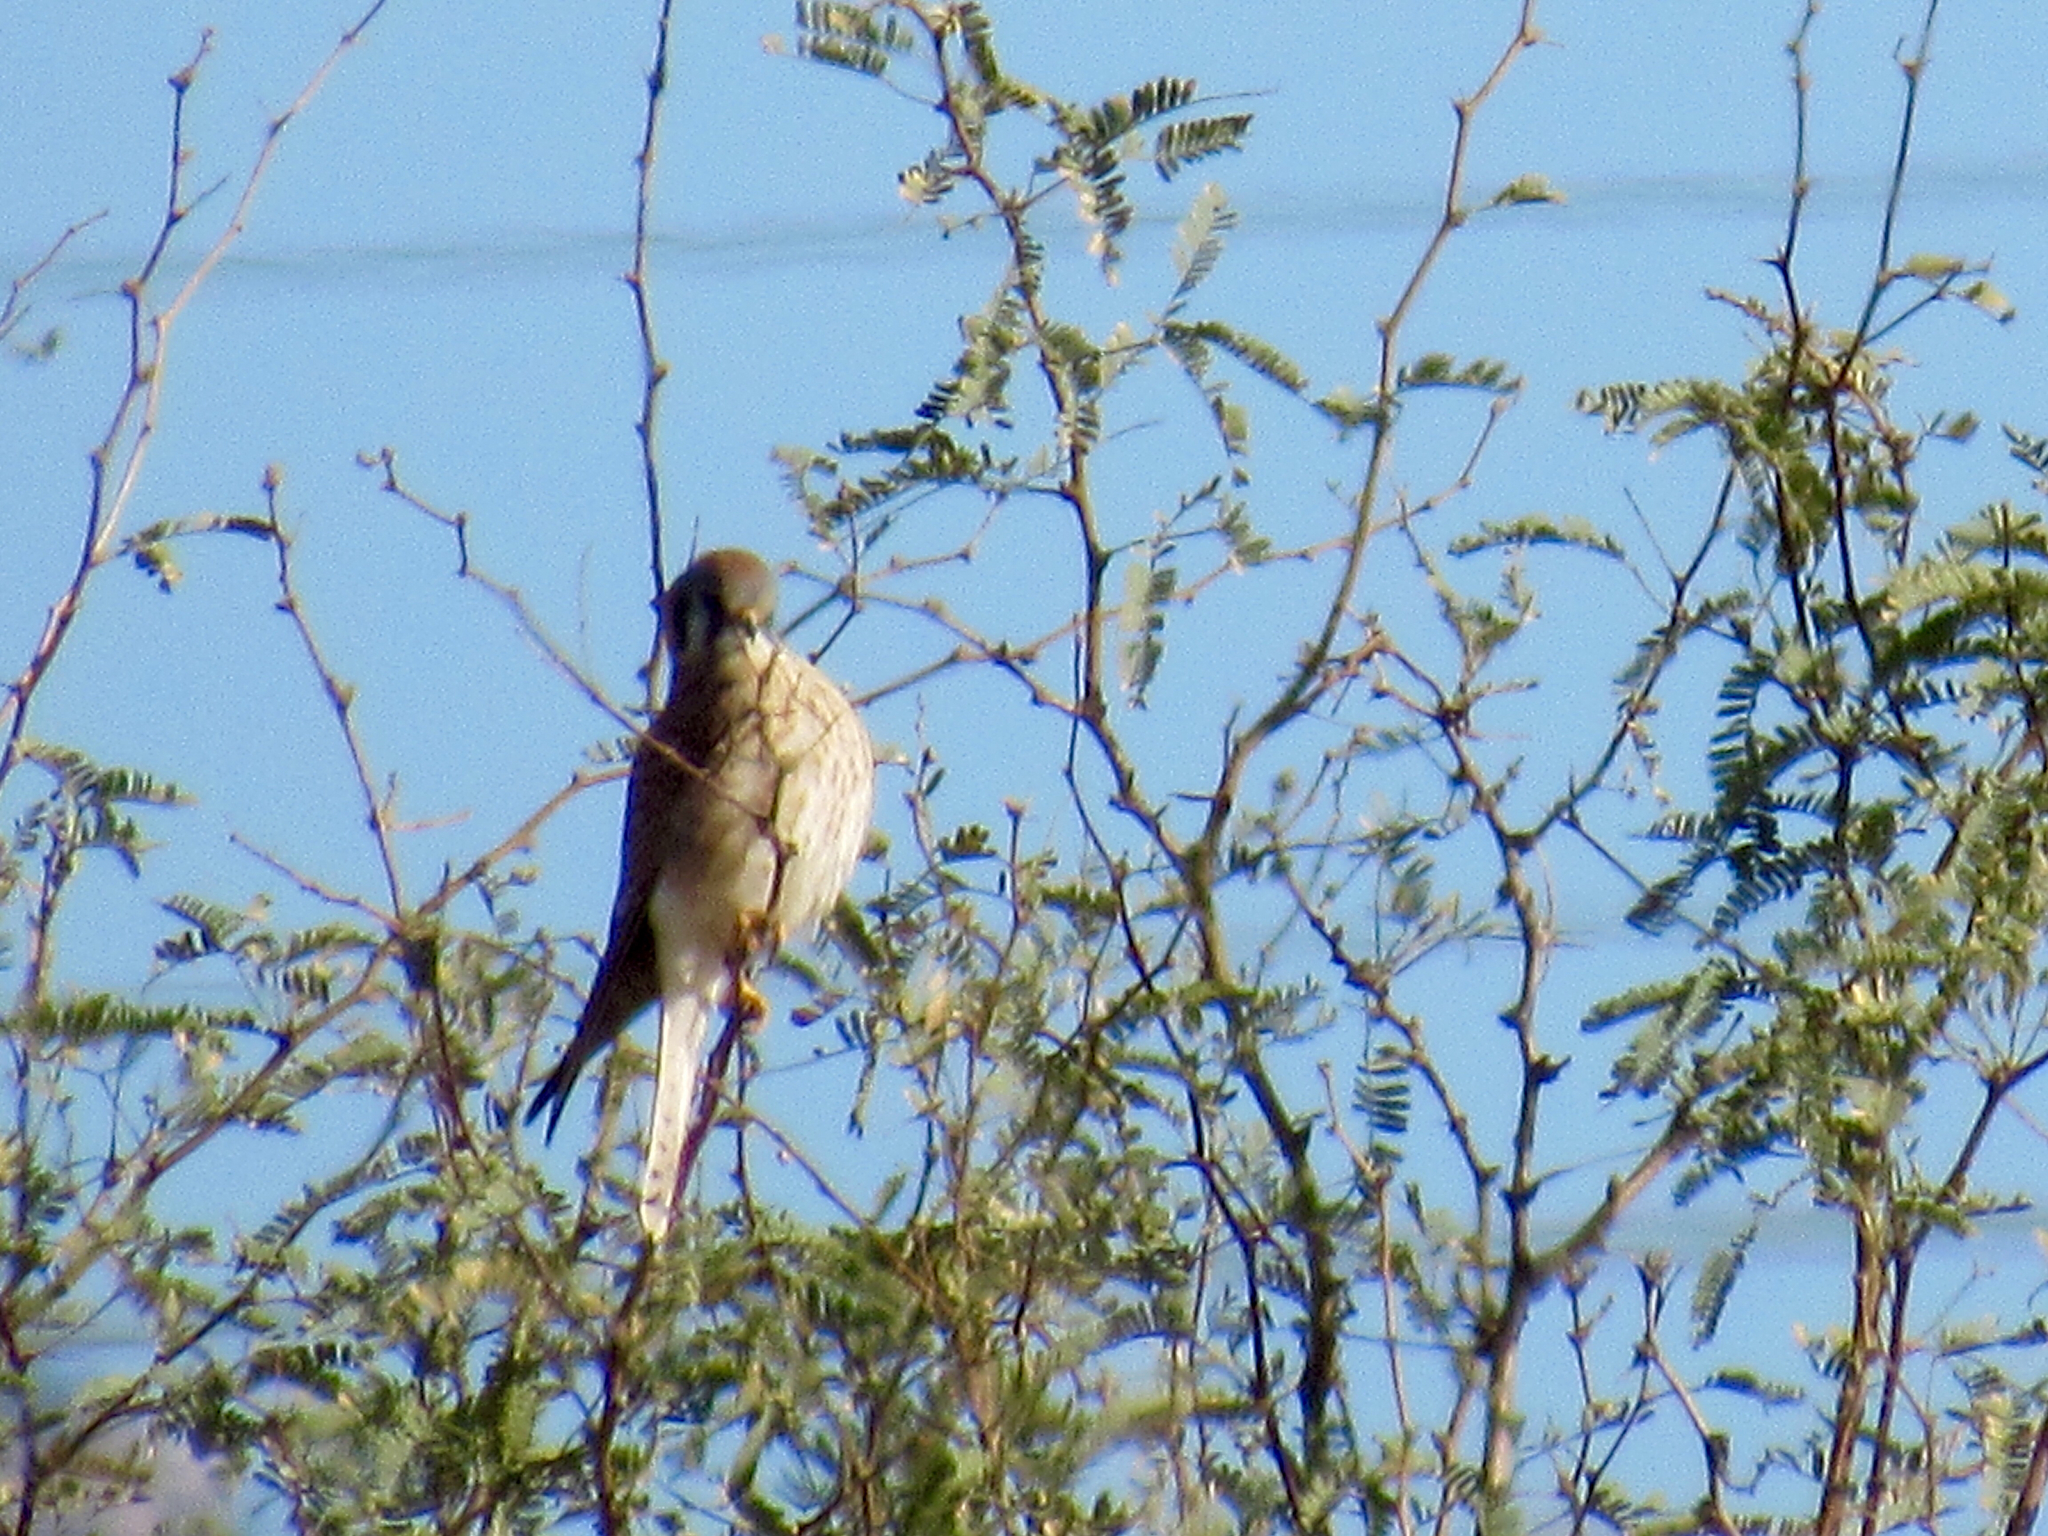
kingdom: Animalia
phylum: Chordata
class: Aves
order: Falconiformes
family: Falconidae
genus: Falco
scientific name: Falco sparverius
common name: American kestrel
